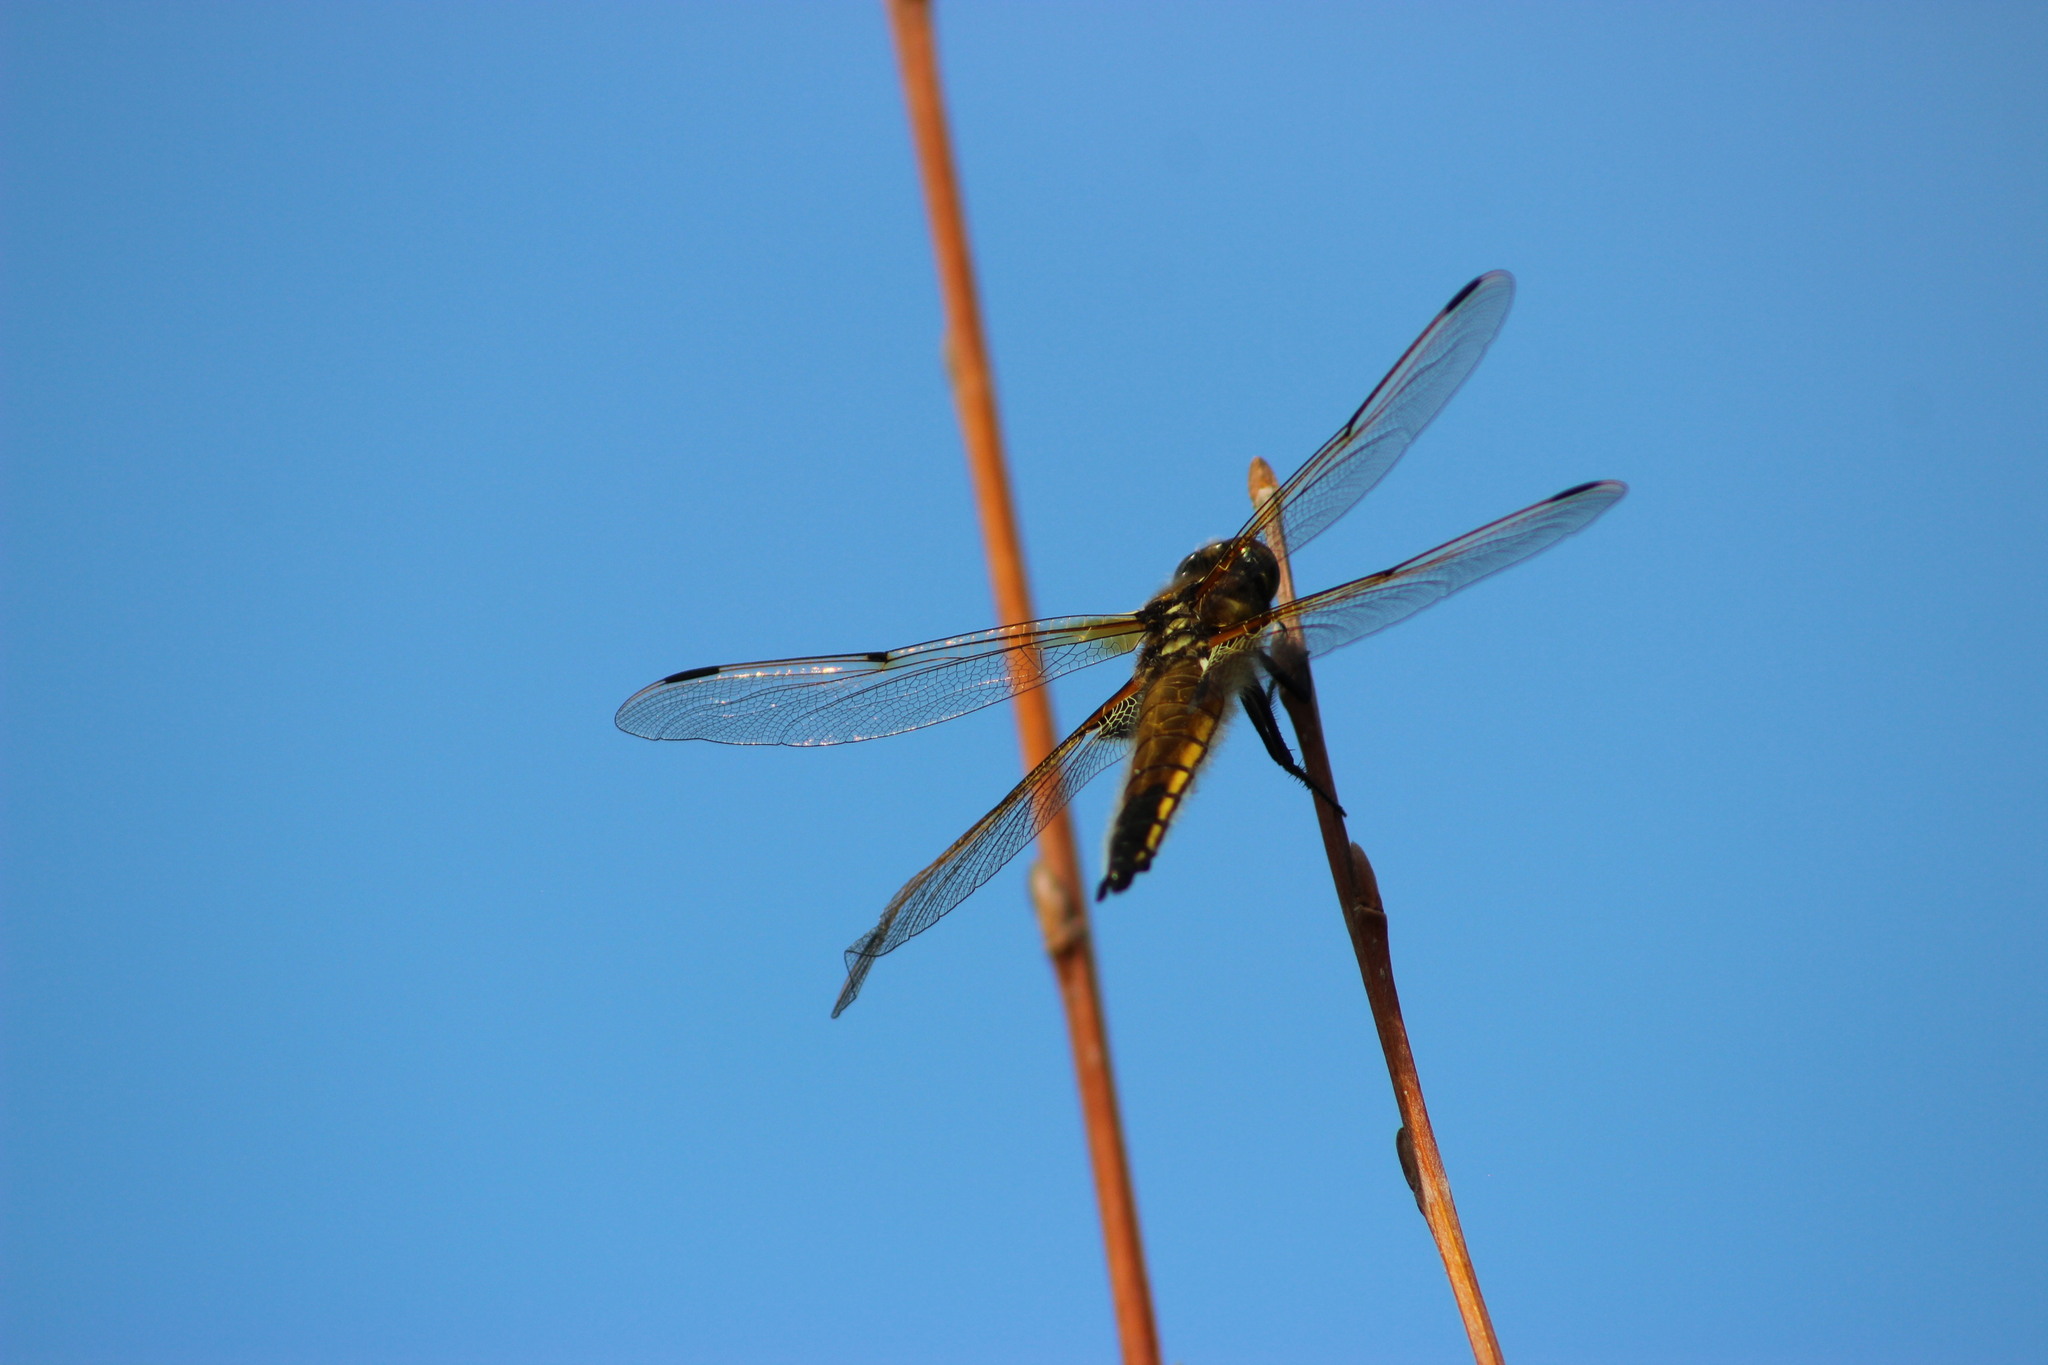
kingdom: Animalia
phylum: Arthropoda
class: Insecta
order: Odonata
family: Libellulidae
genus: Libellula
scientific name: Libellula quadrimaculata
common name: Four-spotted chaser
